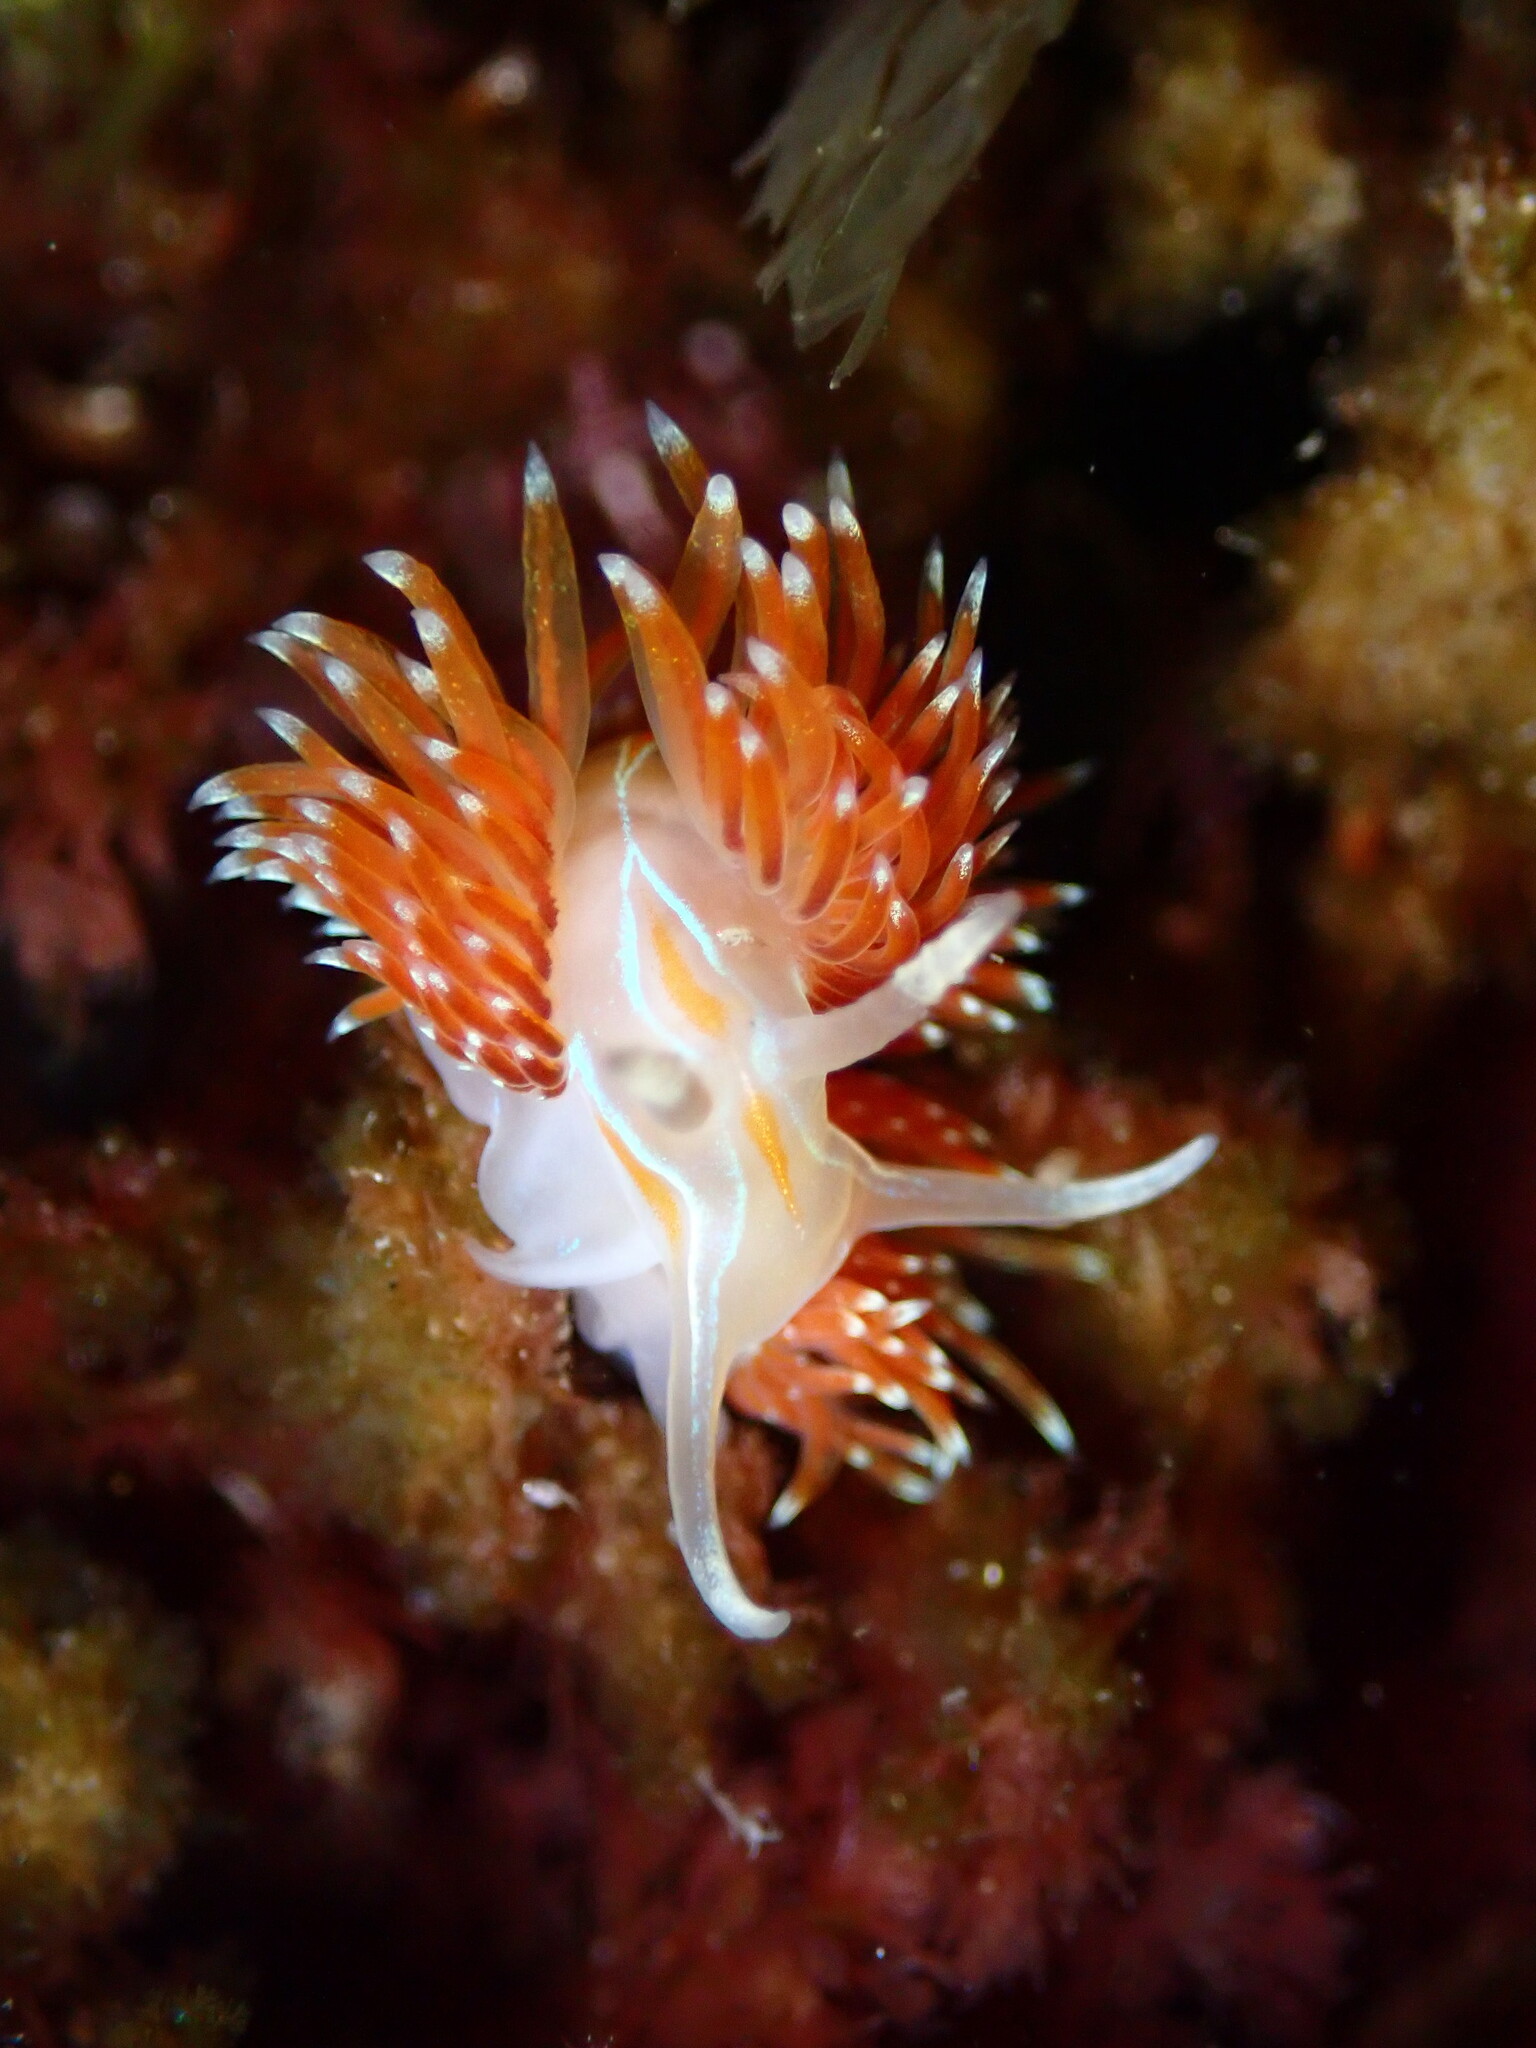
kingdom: Animalia
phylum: Mollusca
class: Gastropoda
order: Nudibranchia
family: Myrrhinidae
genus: Hermissenda
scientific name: Hermissenda opalescens
